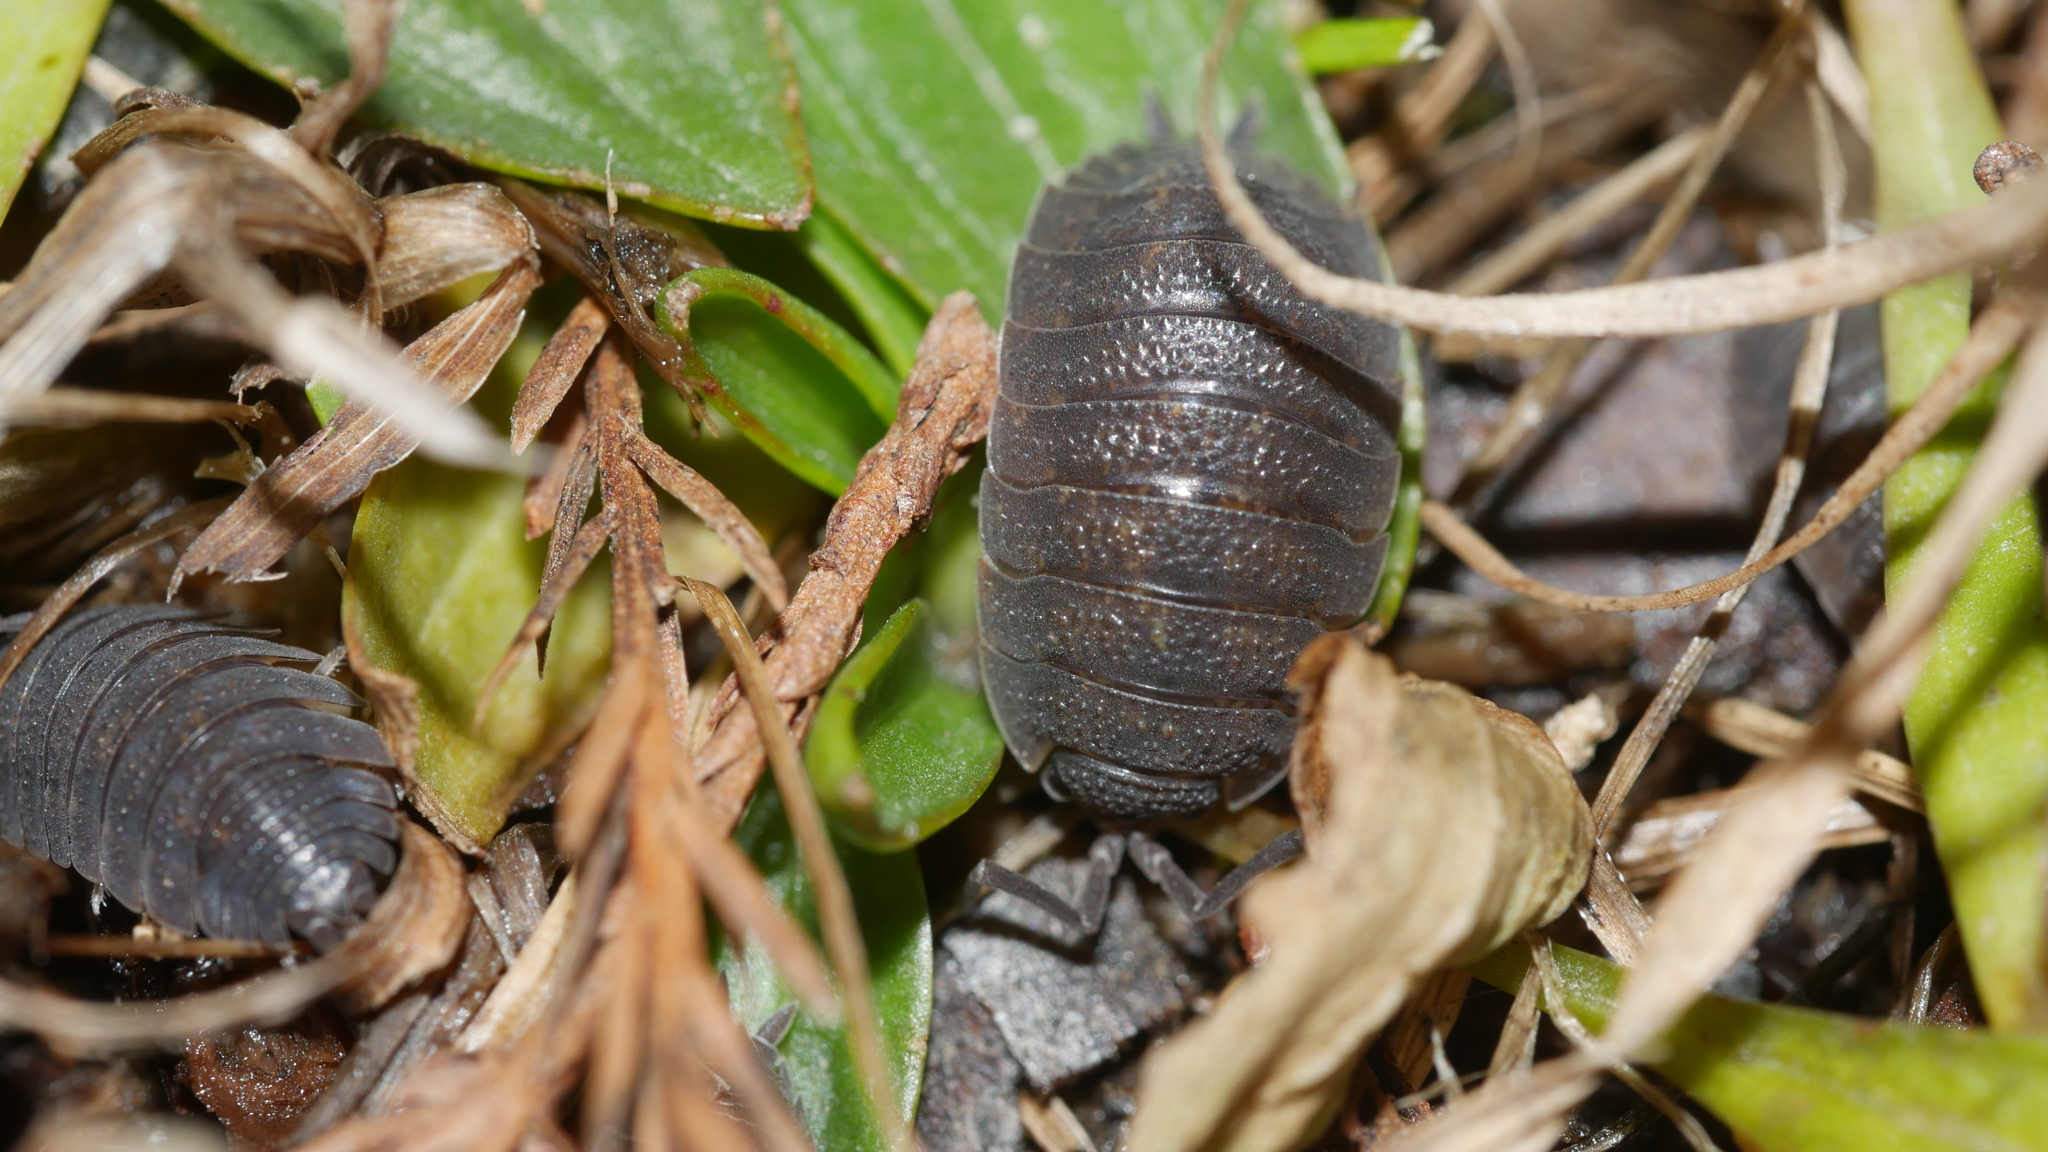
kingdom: Animalia
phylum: Arthropoda
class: Malacostraca
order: Isopoda
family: Porcellionidae
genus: Porcellio
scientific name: Porcellio scaber
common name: Common rough woodlouse
